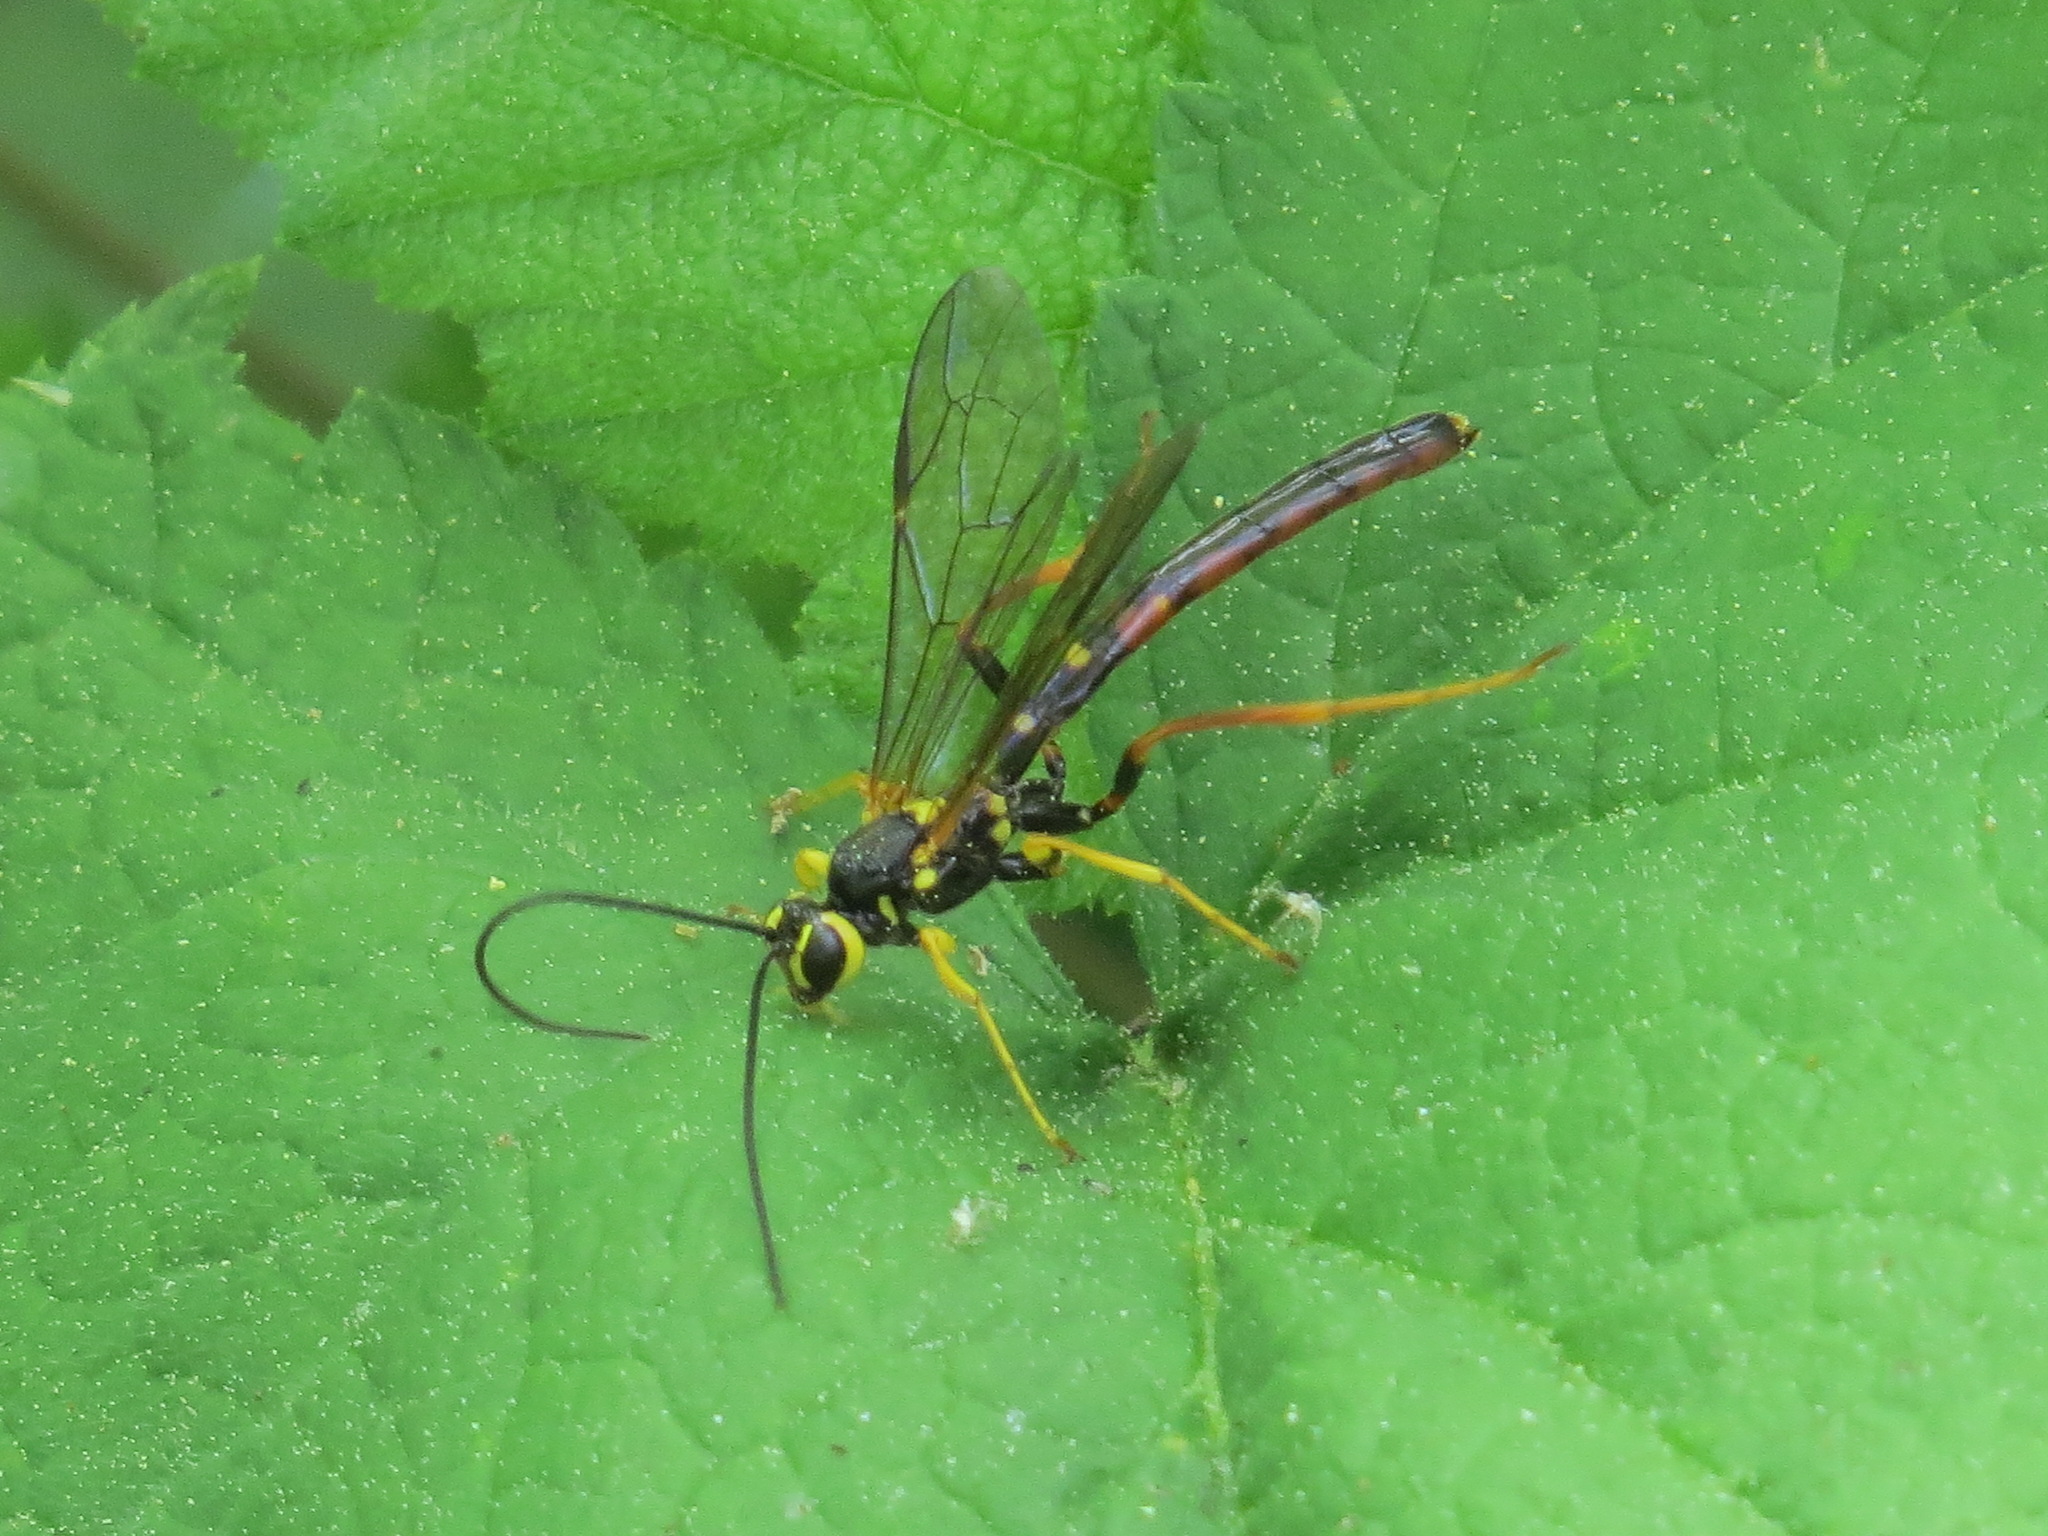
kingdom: Animalia
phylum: Arthropoda
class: Insecta
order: Hymenoptera
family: Ichneumonidae
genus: Megarhyssa
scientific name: Megarhyssa nortoni
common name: Norton's giant ichneumonid wasp
